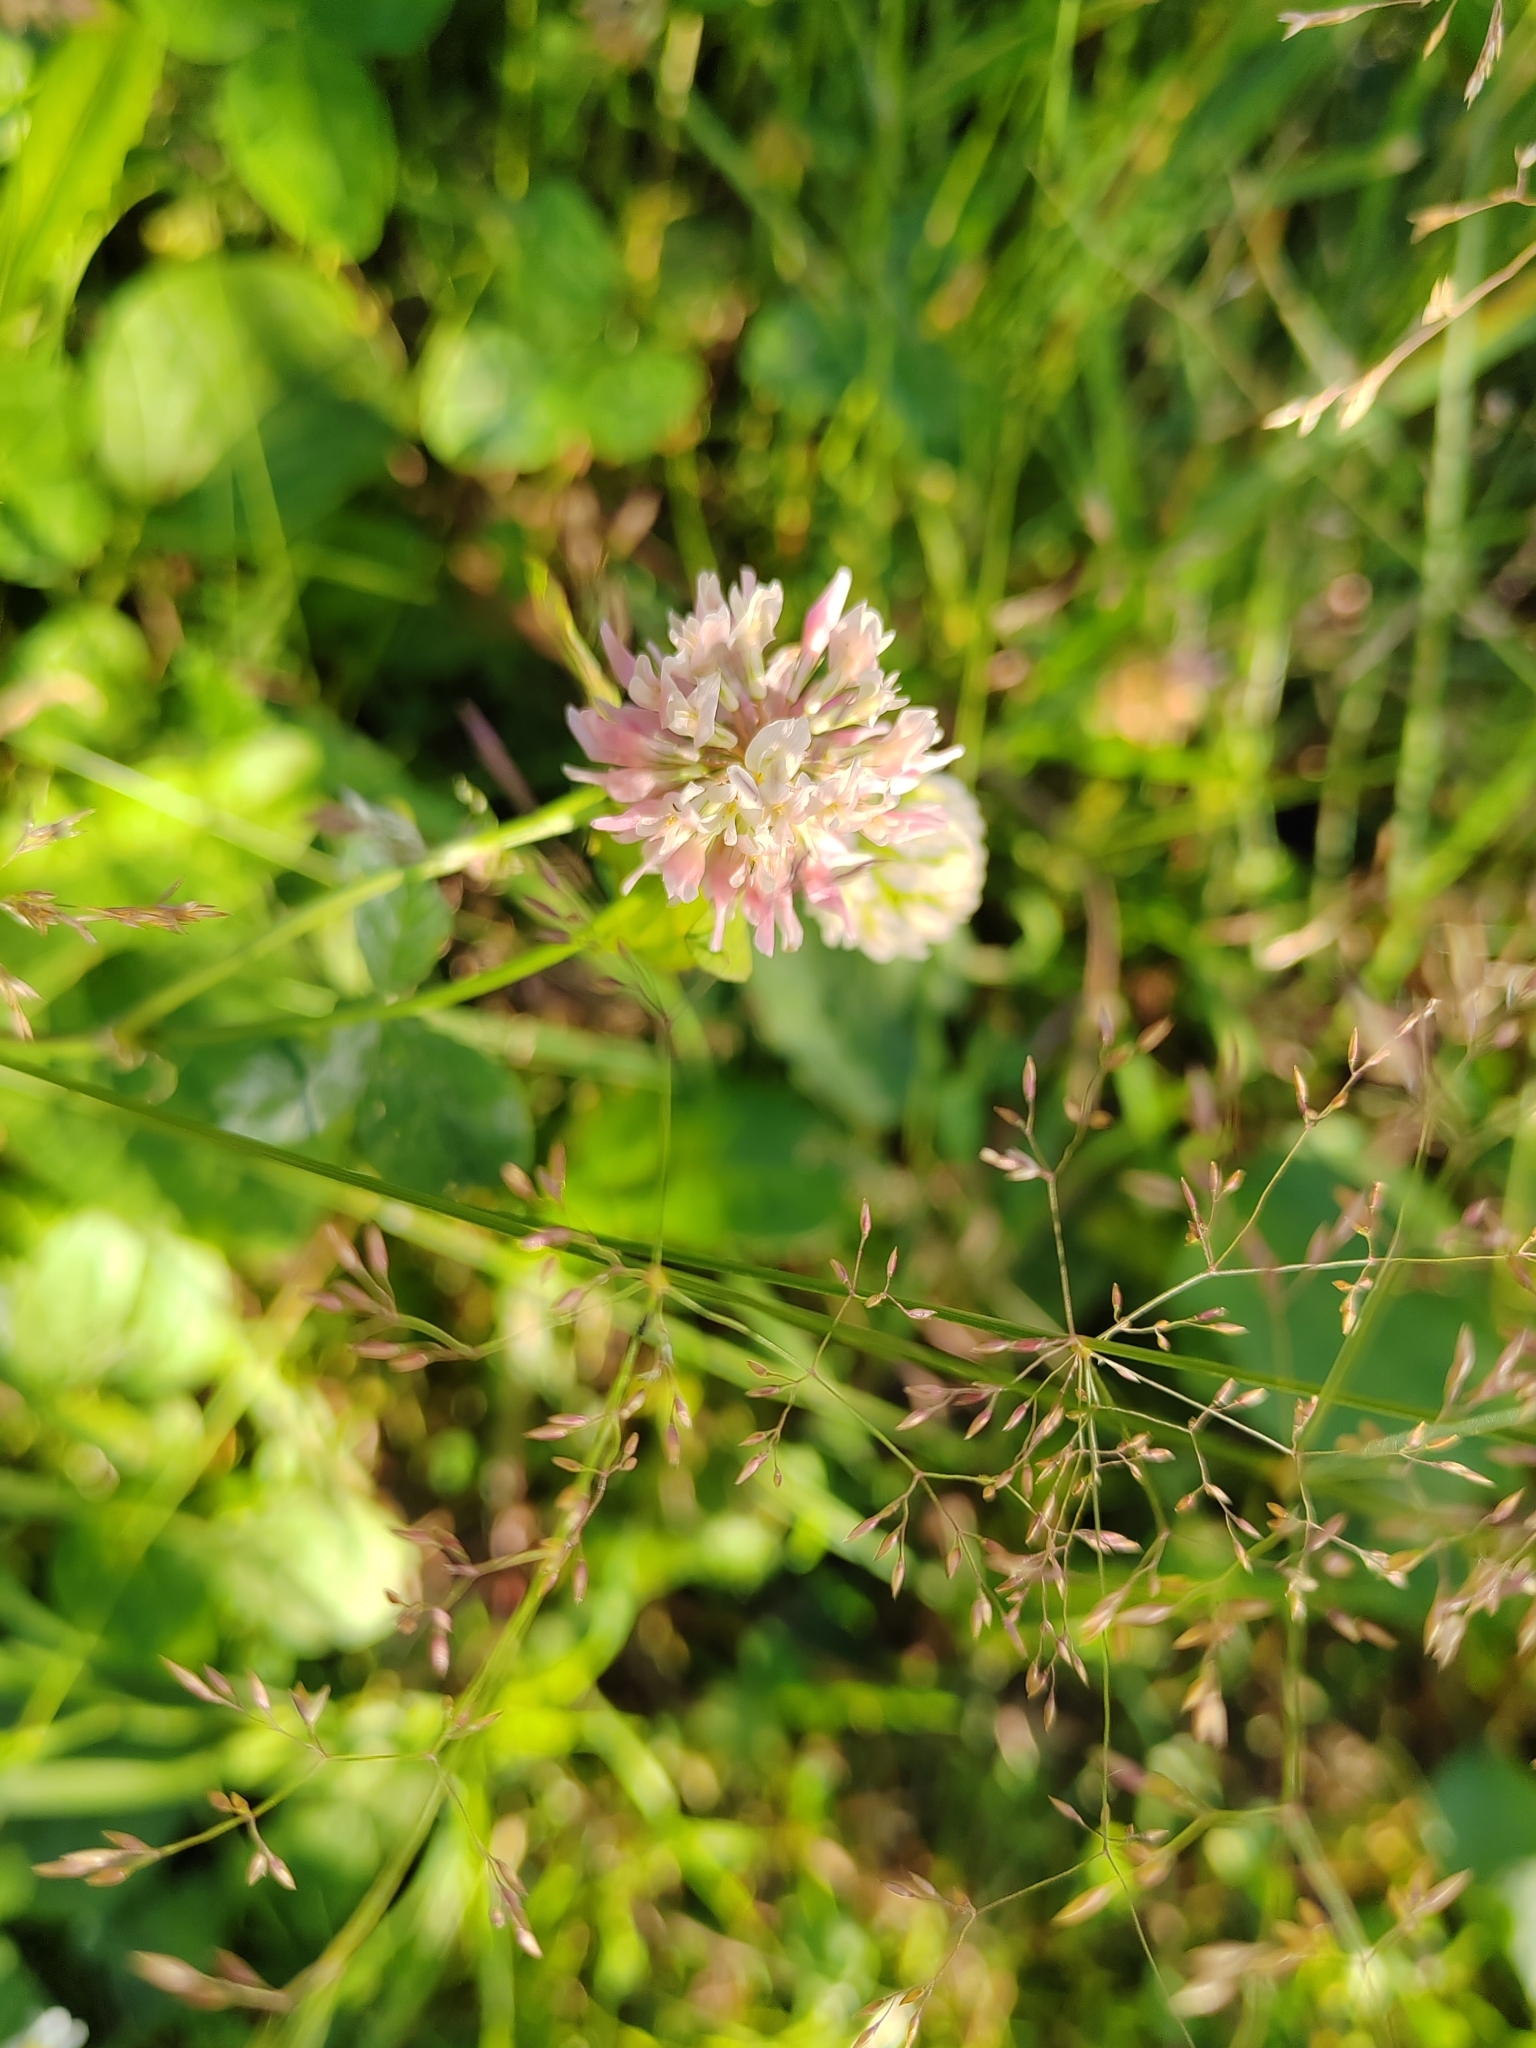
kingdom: Plantae
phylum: Tracheophyta
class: Magnoliopsida
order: Fabales
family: Fabaceae
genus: Trifolium
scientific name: Trifolium hybridum
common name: Alsike clover
